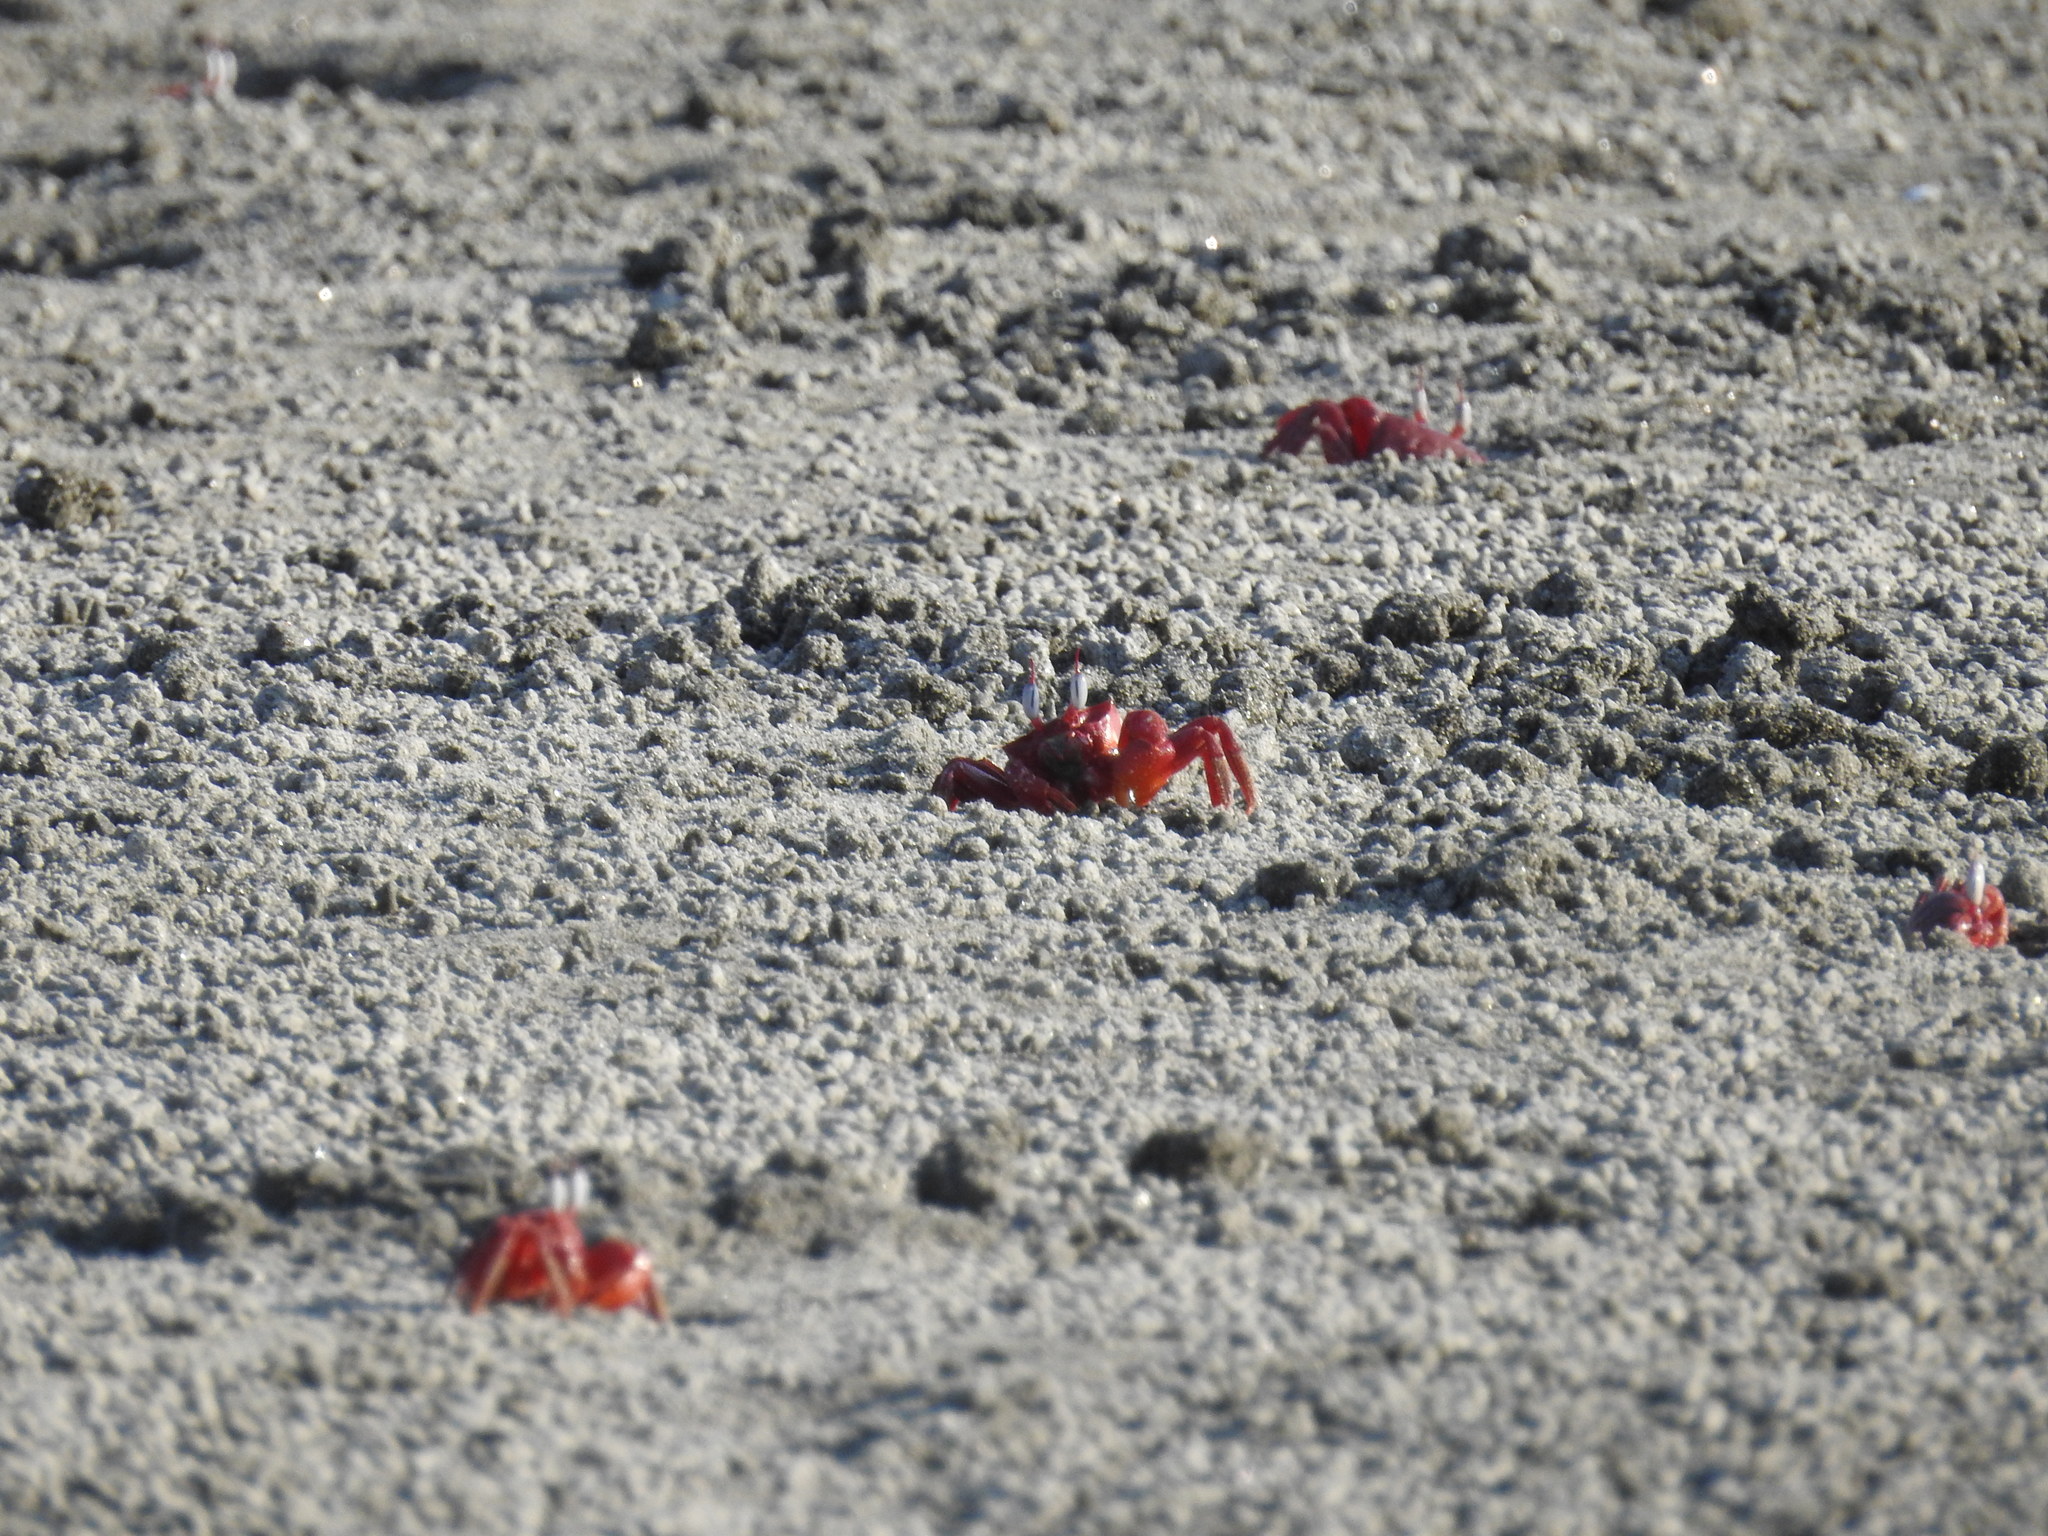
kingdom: Animalia
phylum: Arthropoda
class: Malacostraca
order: Decapoda
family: Ocypodidae
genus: Ocypode
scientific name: Ocypode macrocera
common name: Red ghost crab
